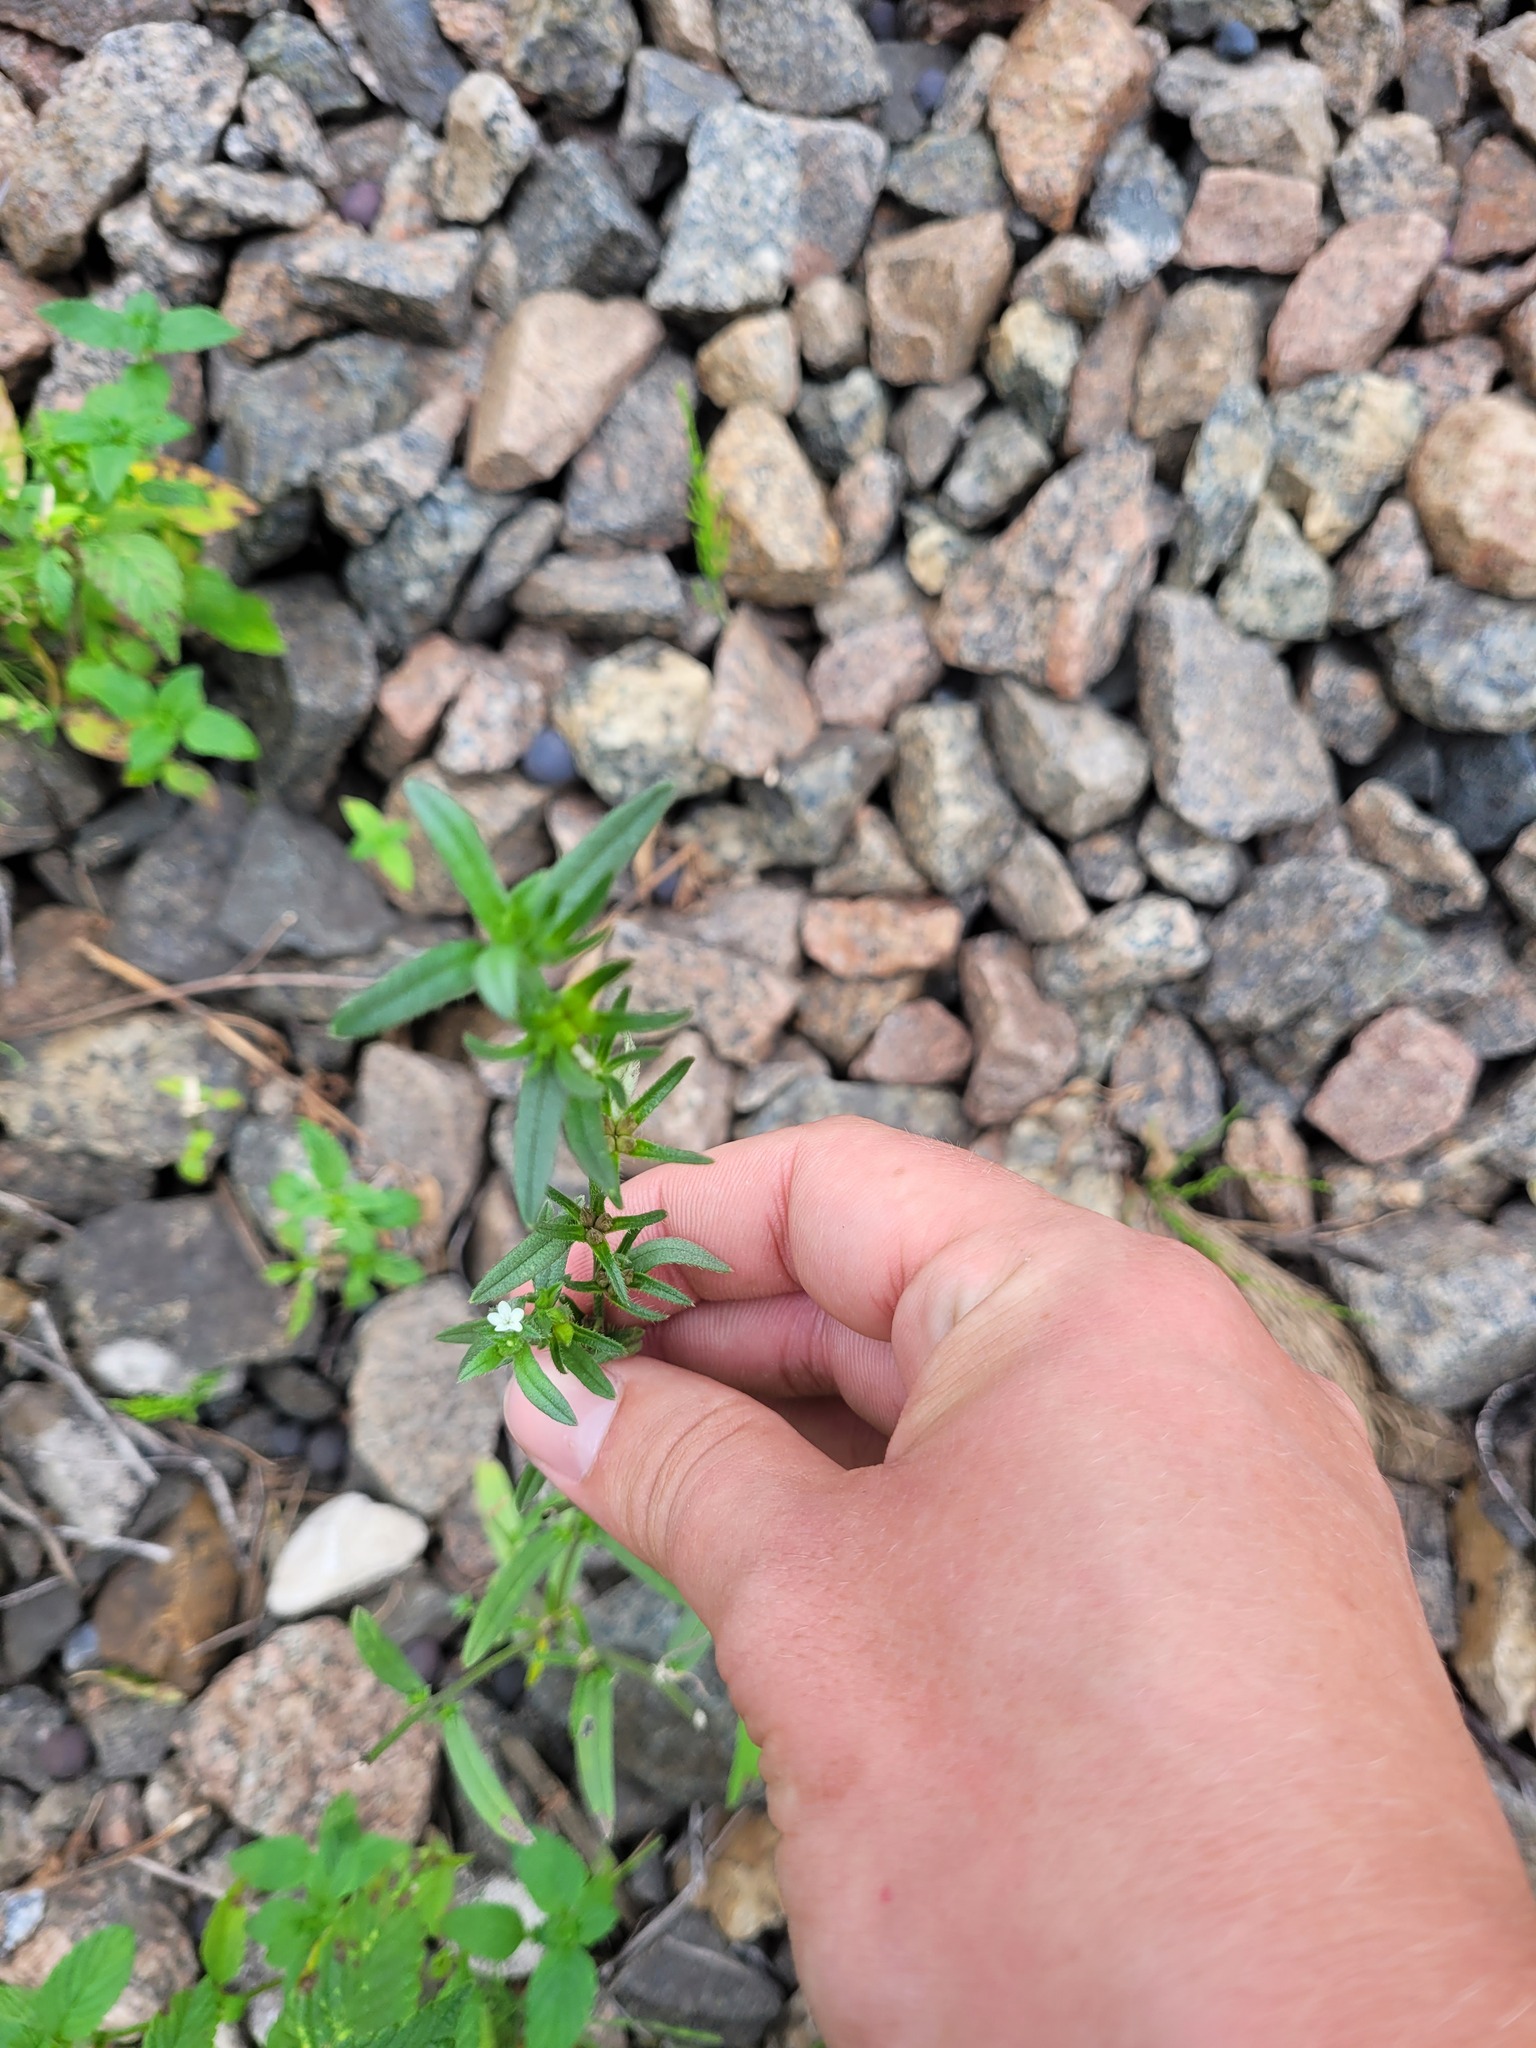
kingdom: Plantae
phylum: Tracheophyta
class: Magnoliopsida
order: Boraginales
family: Boraginaceae
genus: Buglossoides
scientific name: Buglossoides arvensis
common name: Corn gromwell
